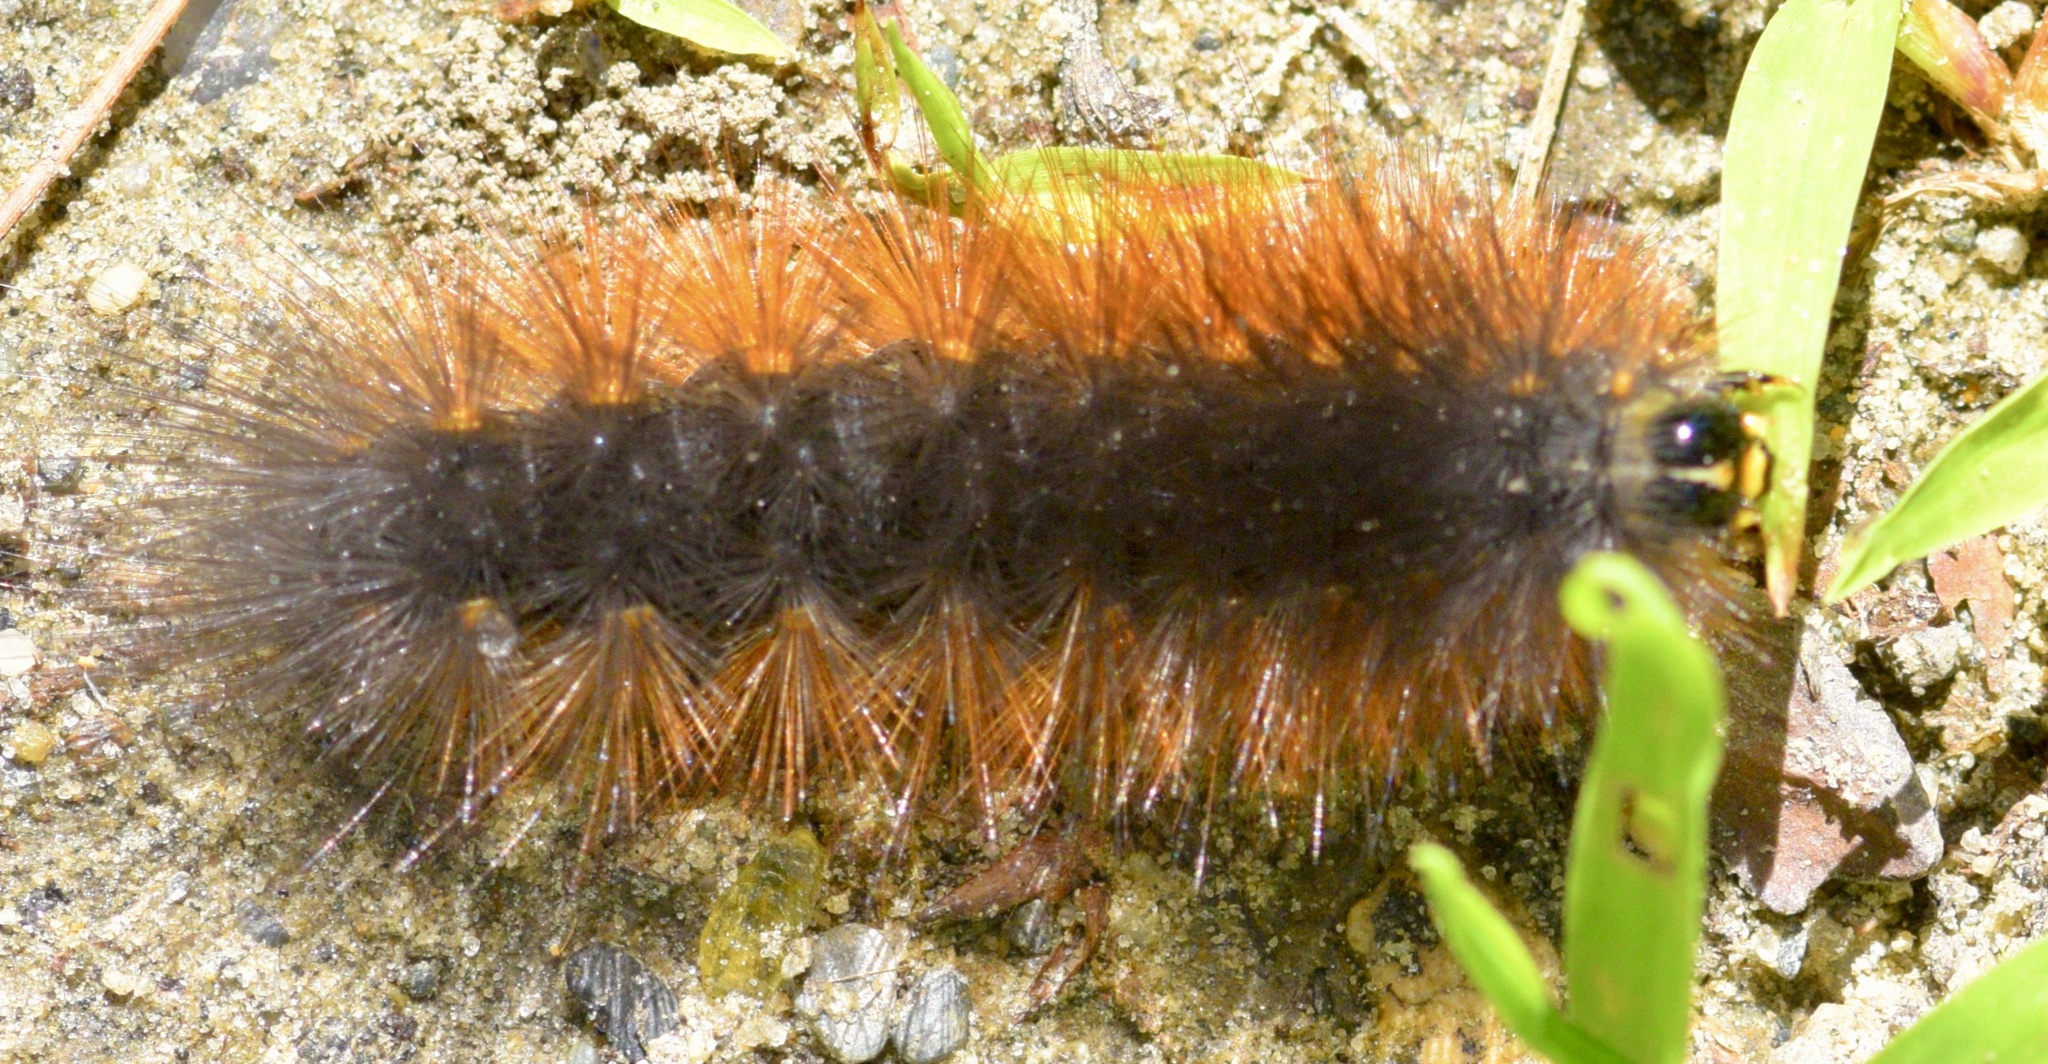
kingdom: Animalia
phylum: Arthropoda
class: Insecta
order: Lepidoptera
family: Erebidae
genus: Estigmene
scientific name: Estigmene acrea
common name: Salt marsh moth
